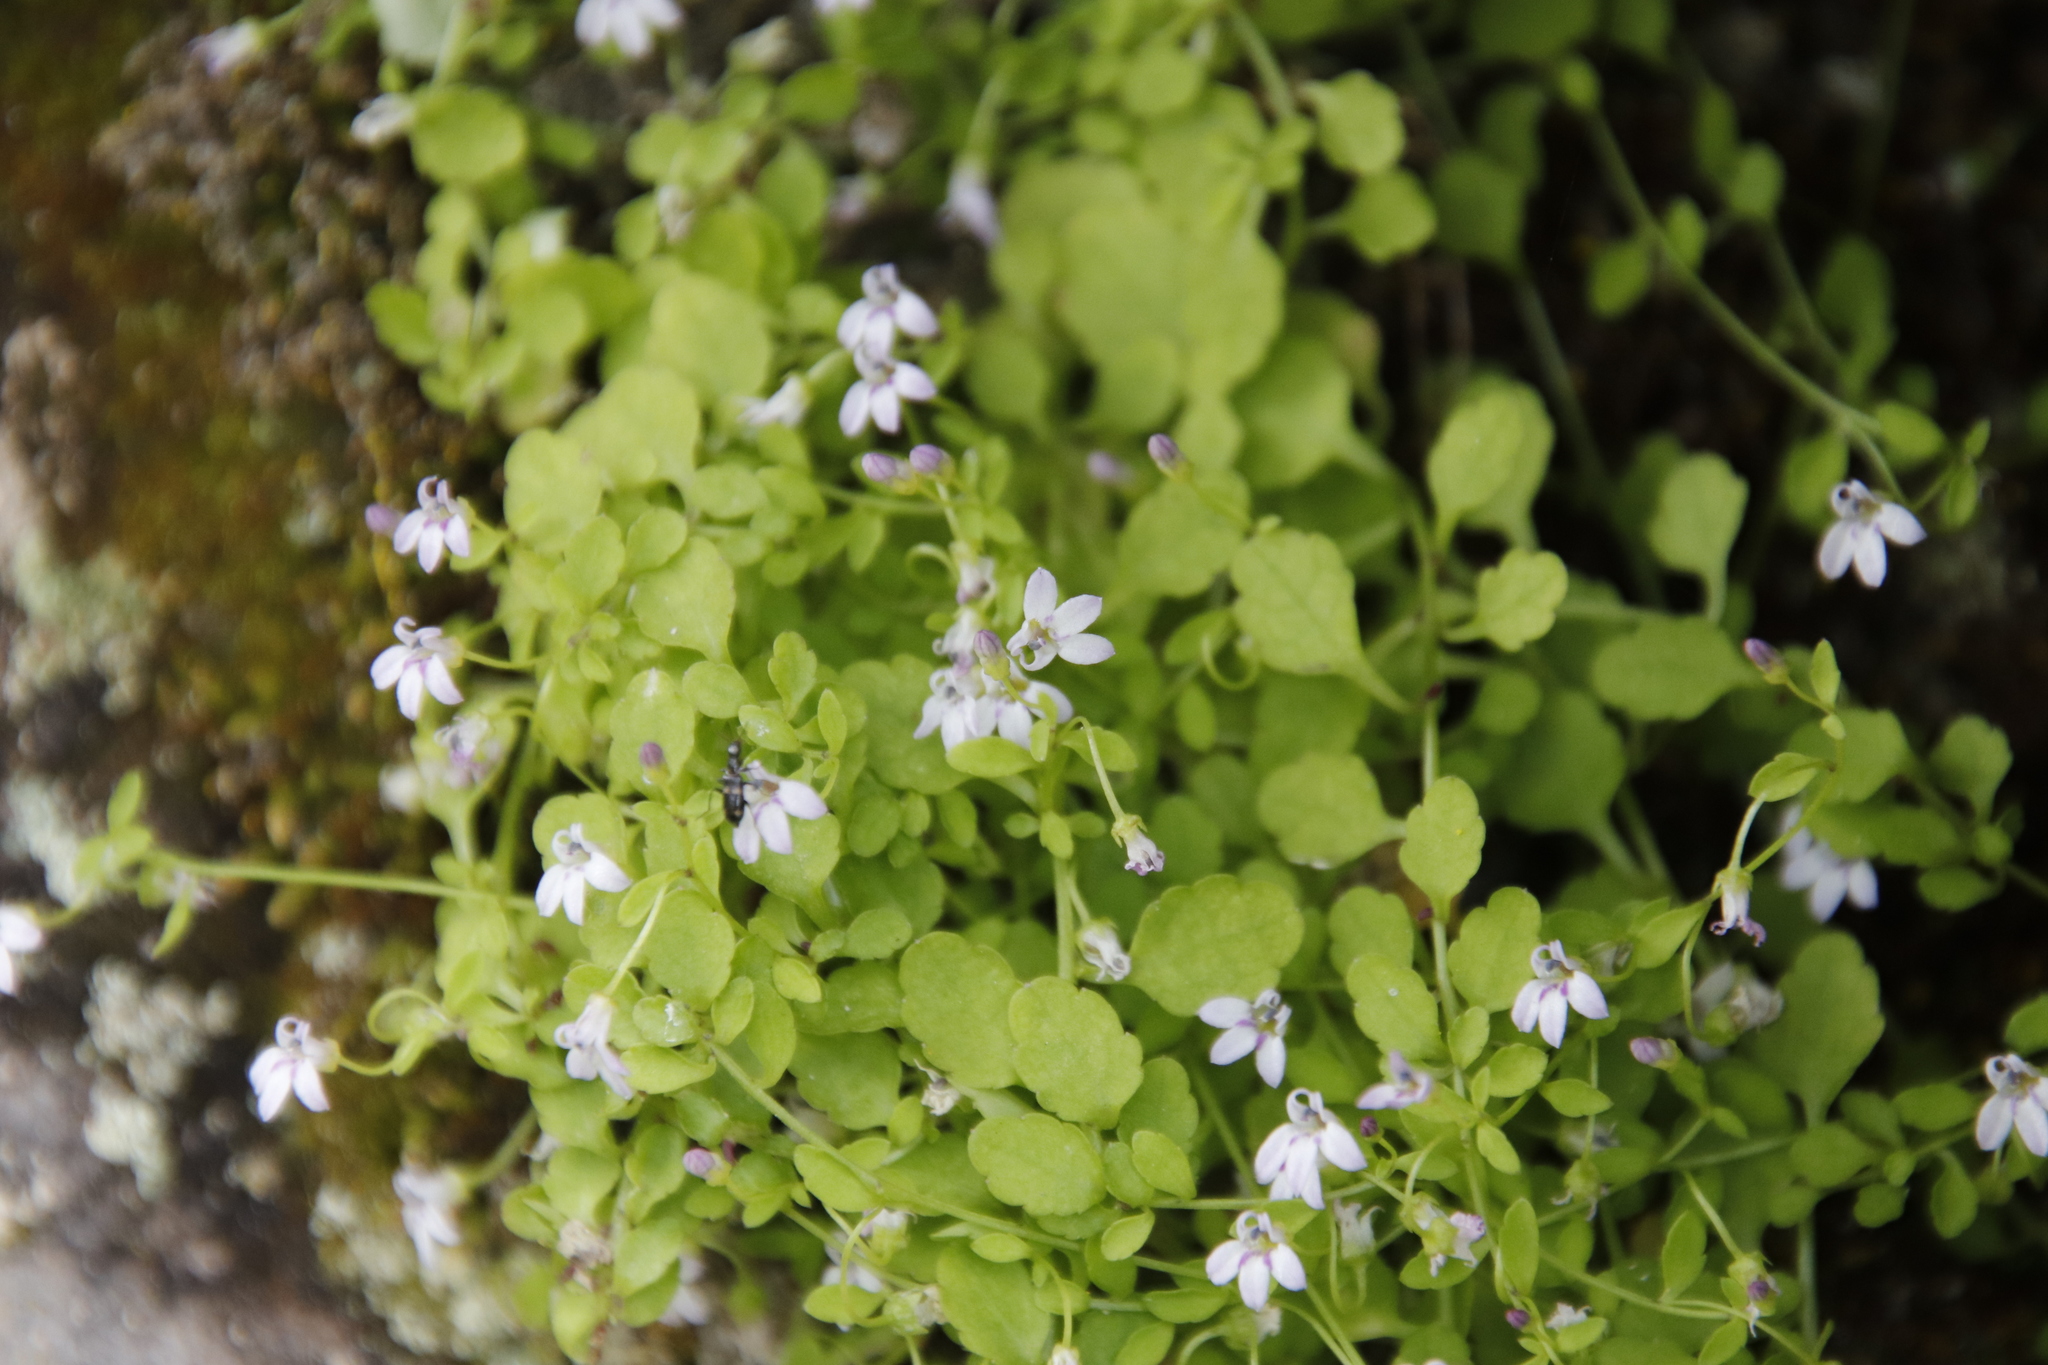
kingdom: Plantae
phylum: Tracheophyta
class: Magnoliopsida
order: Asterales
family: Campanulaceae
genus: Unigenes
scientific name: Unigenes humifusa
